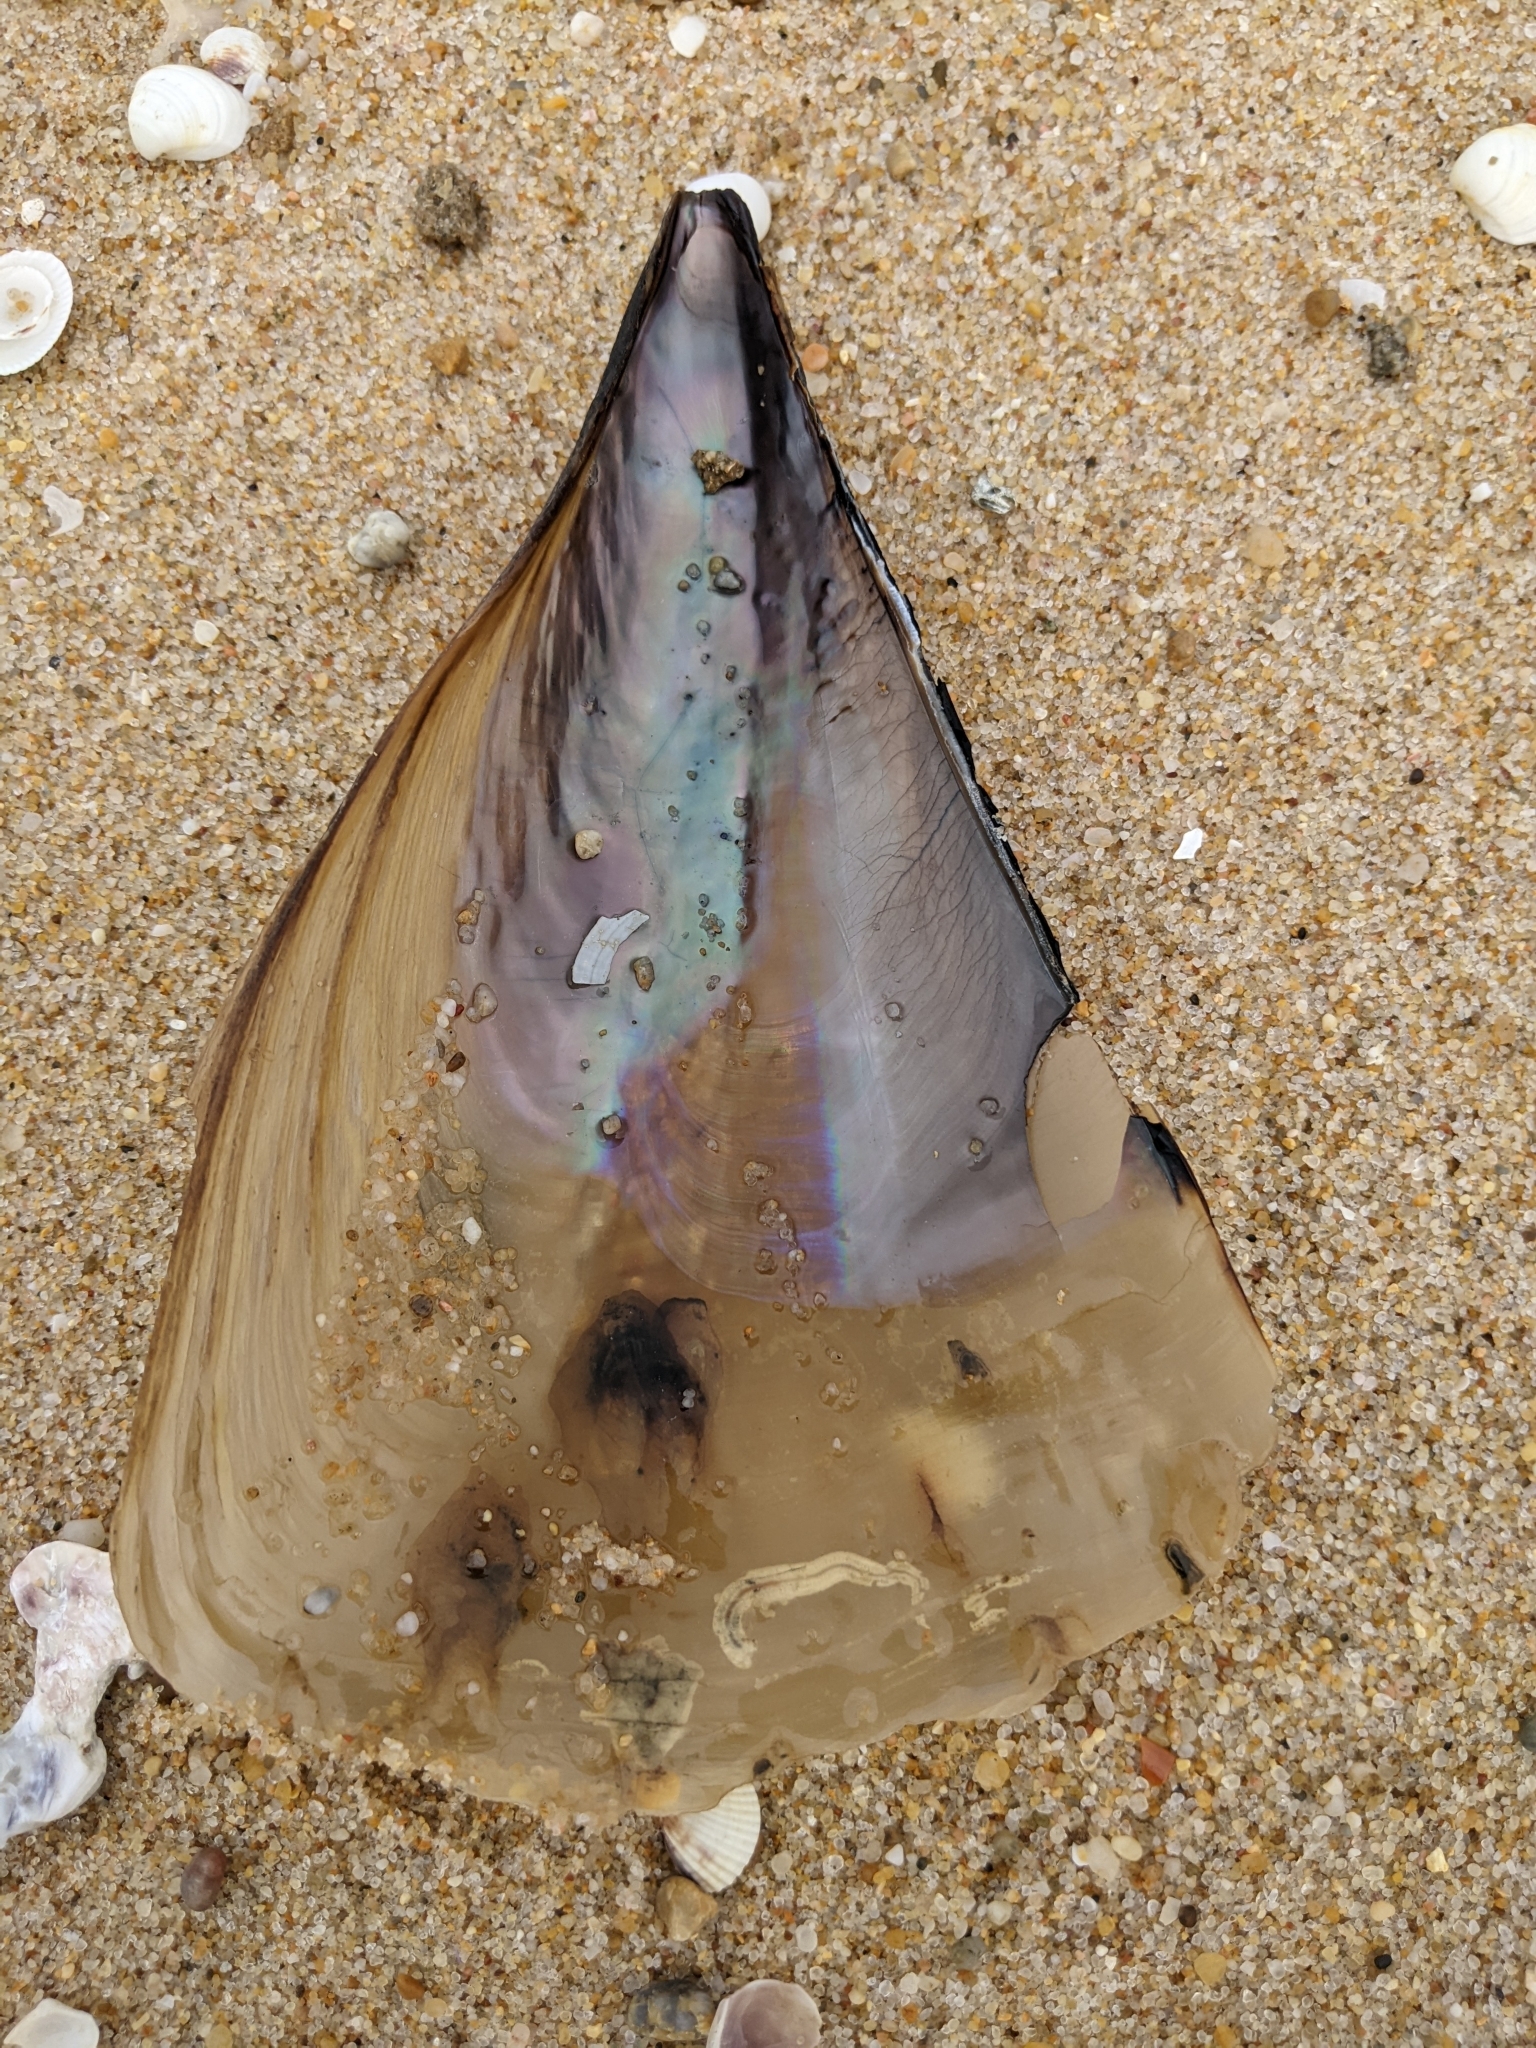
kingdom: Animalia
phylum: Mollusca
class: Bivalvia
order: Ostreida
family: Pinnidae
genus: Atrina
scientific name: Atrina fragilis
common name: Fan mussel
